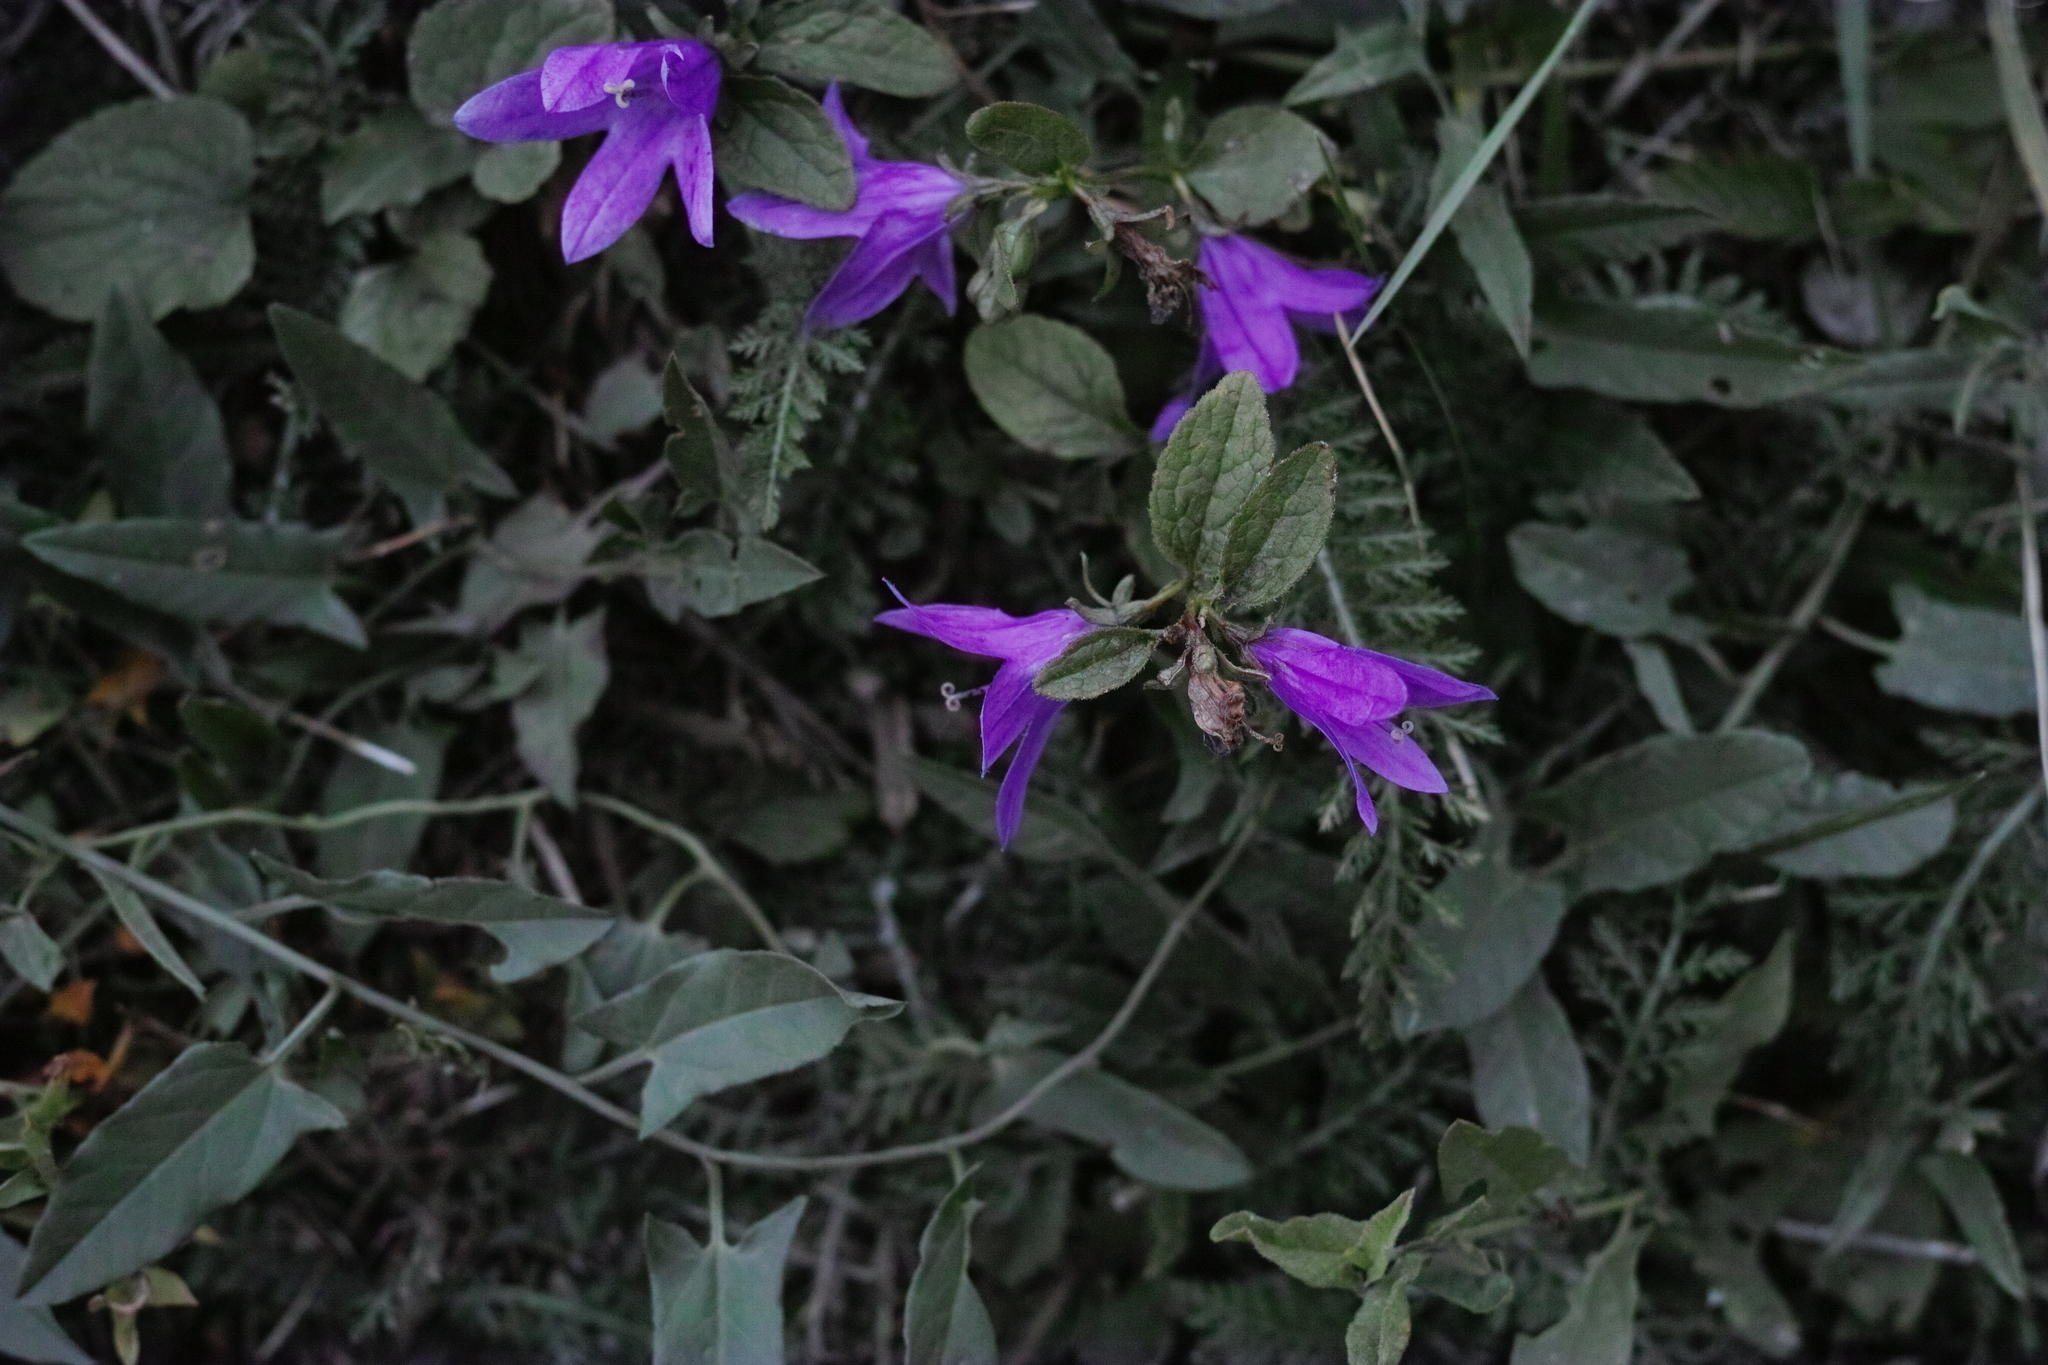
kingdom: Plantae
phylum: Tracheophyta
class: Magnoliopsida
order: Asterales
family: Campanulaceae
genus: Campanula
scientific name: Campanula rapunculoides
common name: Creeping bellflower
